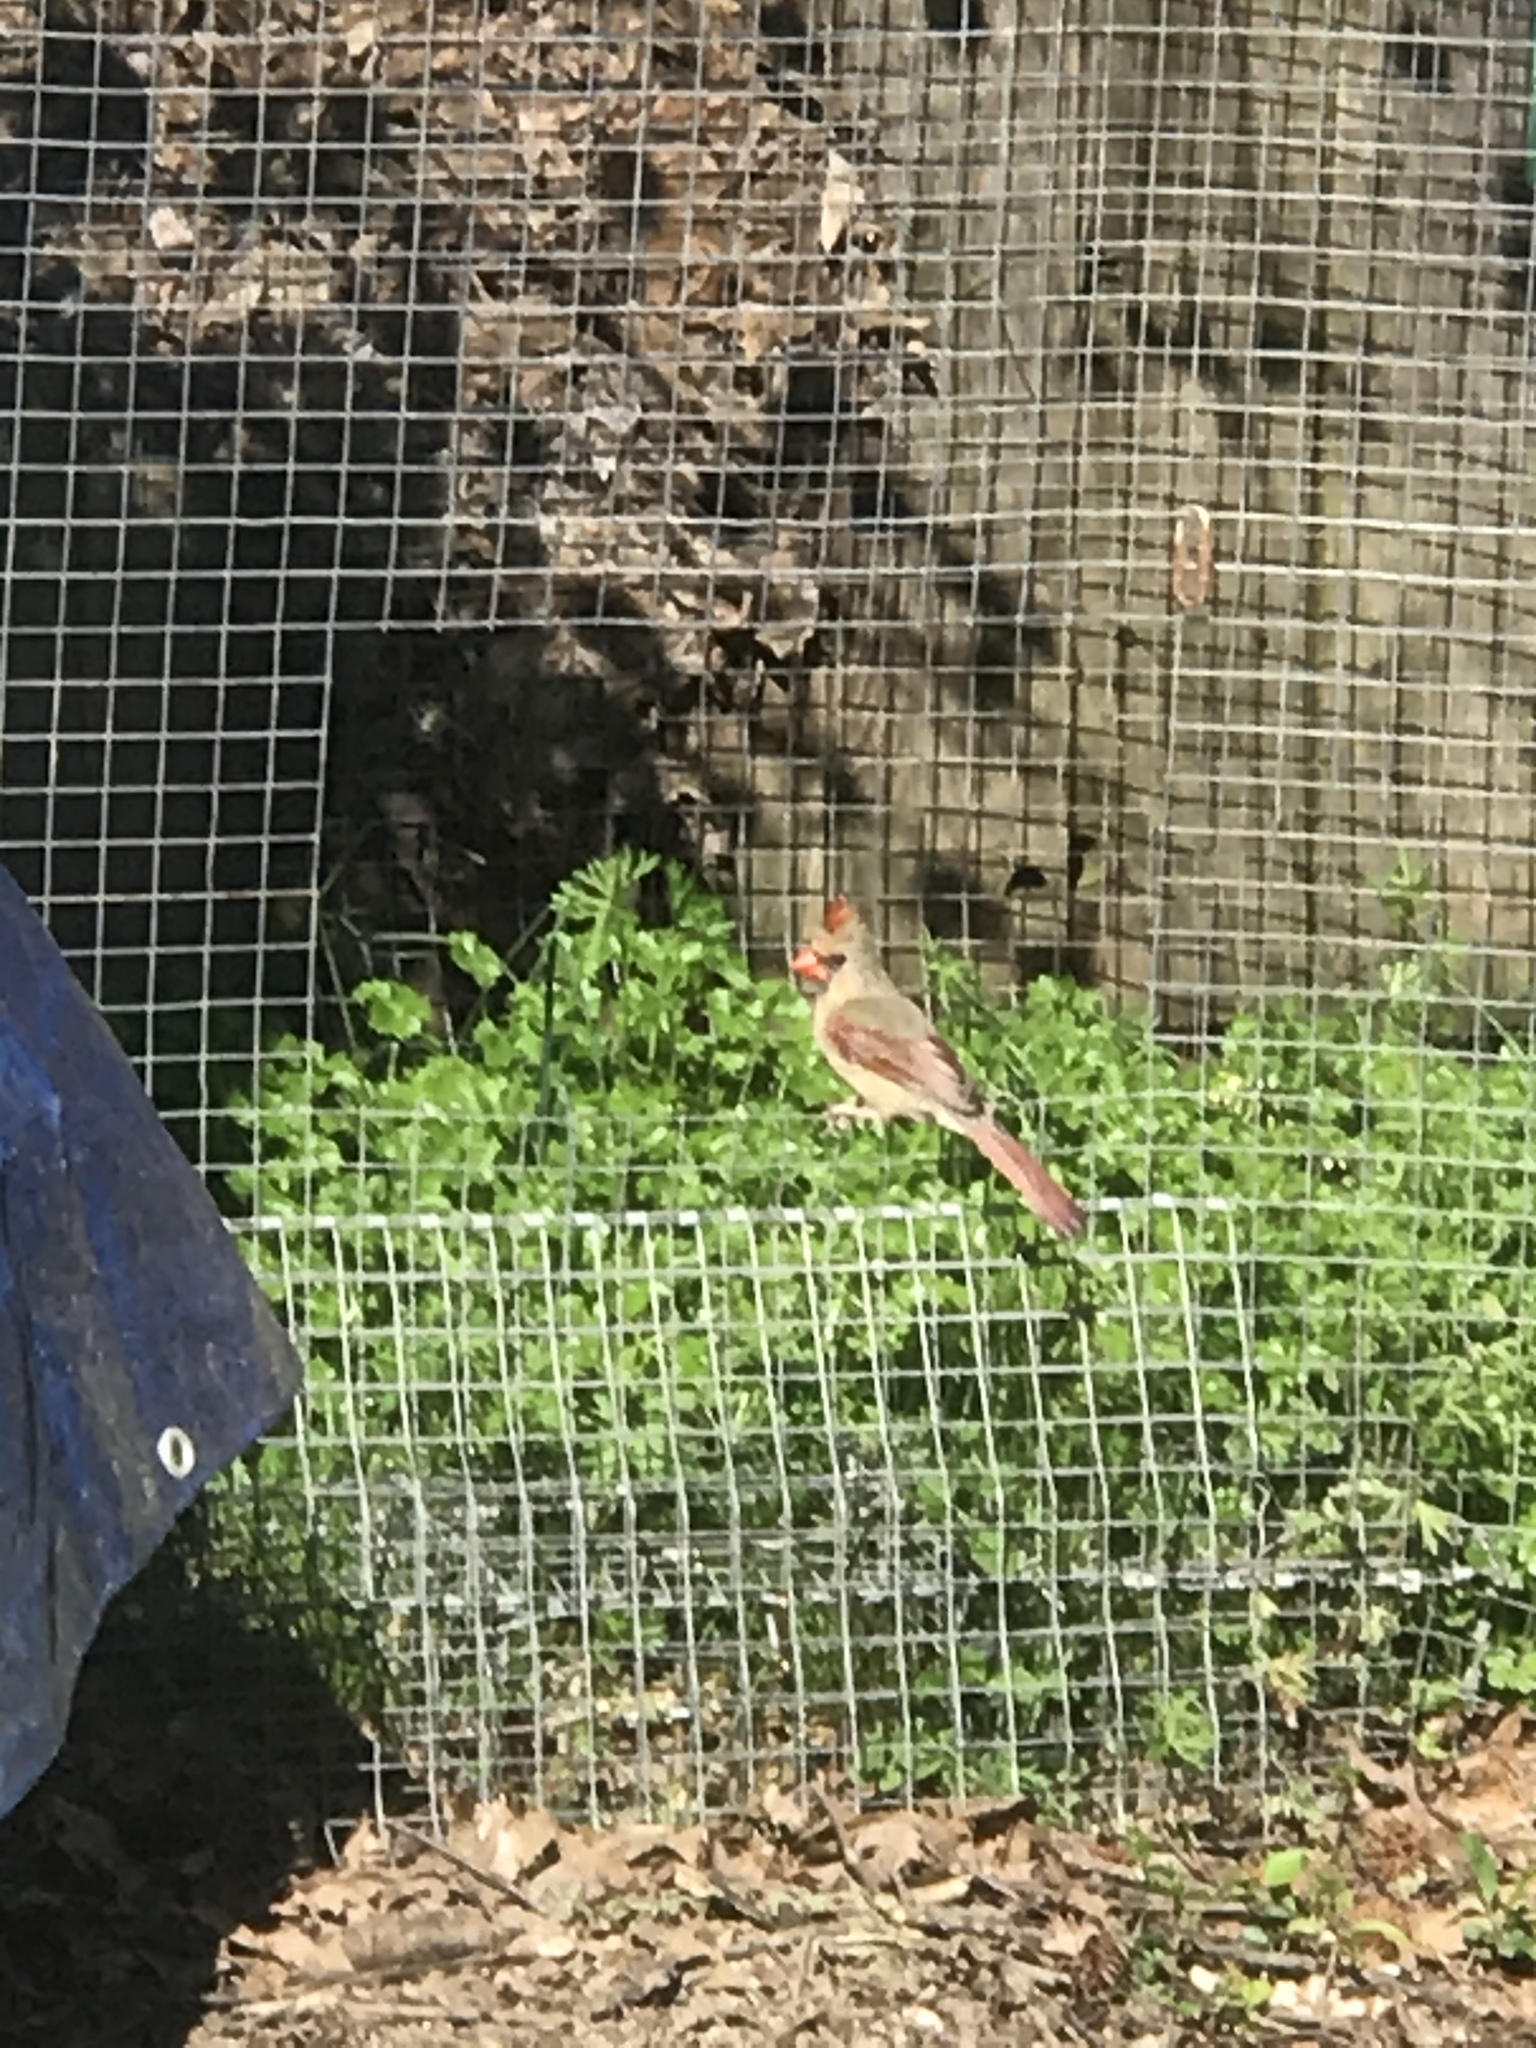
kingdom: Animalia
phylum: Chordata
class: Aves
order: Passeriformes
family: Cardinalidae
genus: Cardinalis
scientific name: Cardinalis cardinalis
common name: Northern cardinal
